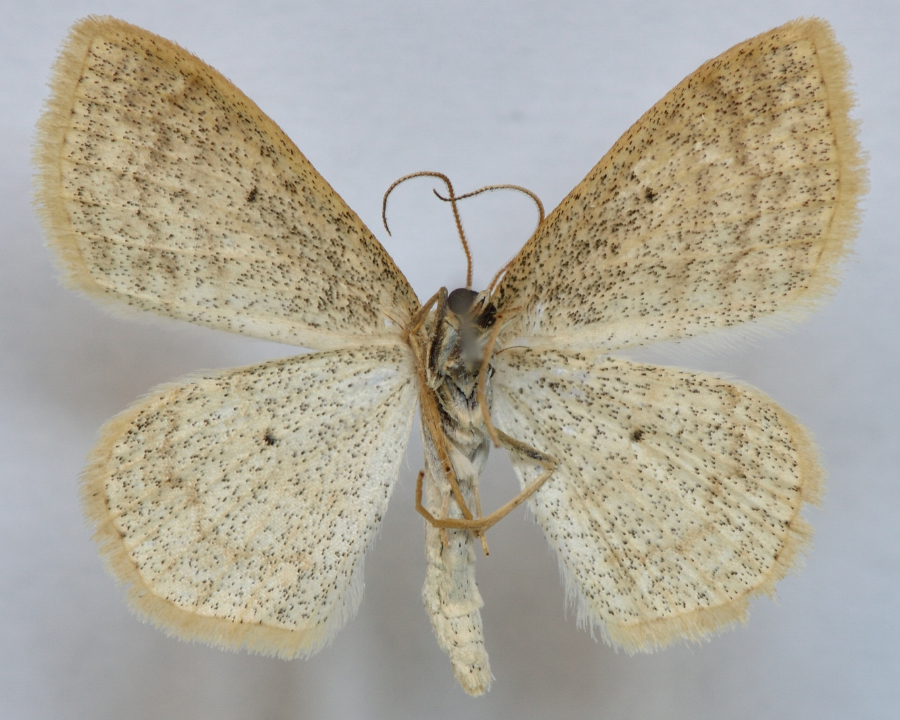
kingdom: Animalia
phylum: Arthropoda
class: Insecta
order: Lepidoptera
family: Geometridae
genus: Scopula
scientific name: Scopula immutata
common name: Lesser cream wave
